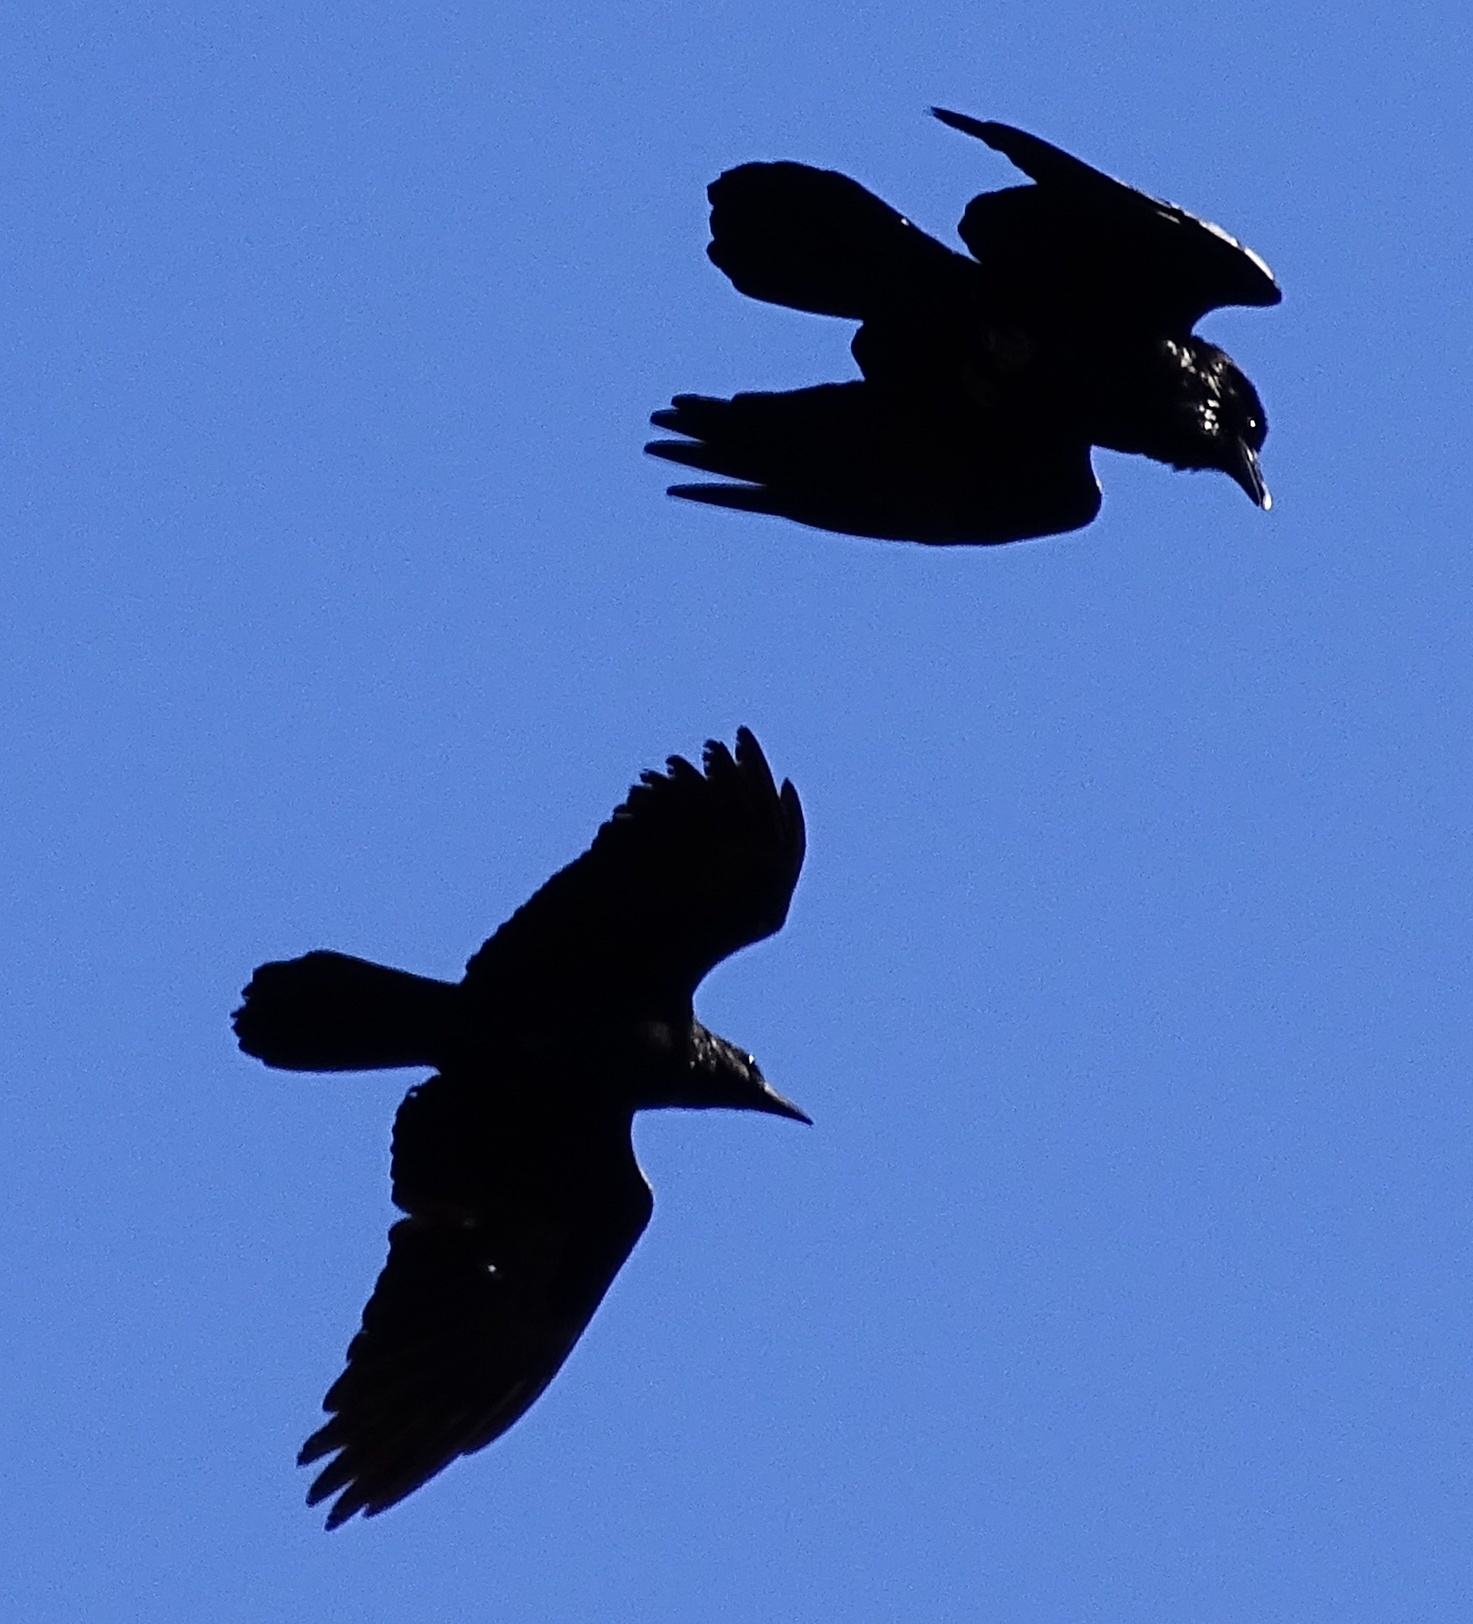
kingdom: Animalia
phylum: Chordata
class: Aves
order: Passeriformes
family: Corvidae
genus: Corvus
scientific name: Corvus corax
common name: Common raven
